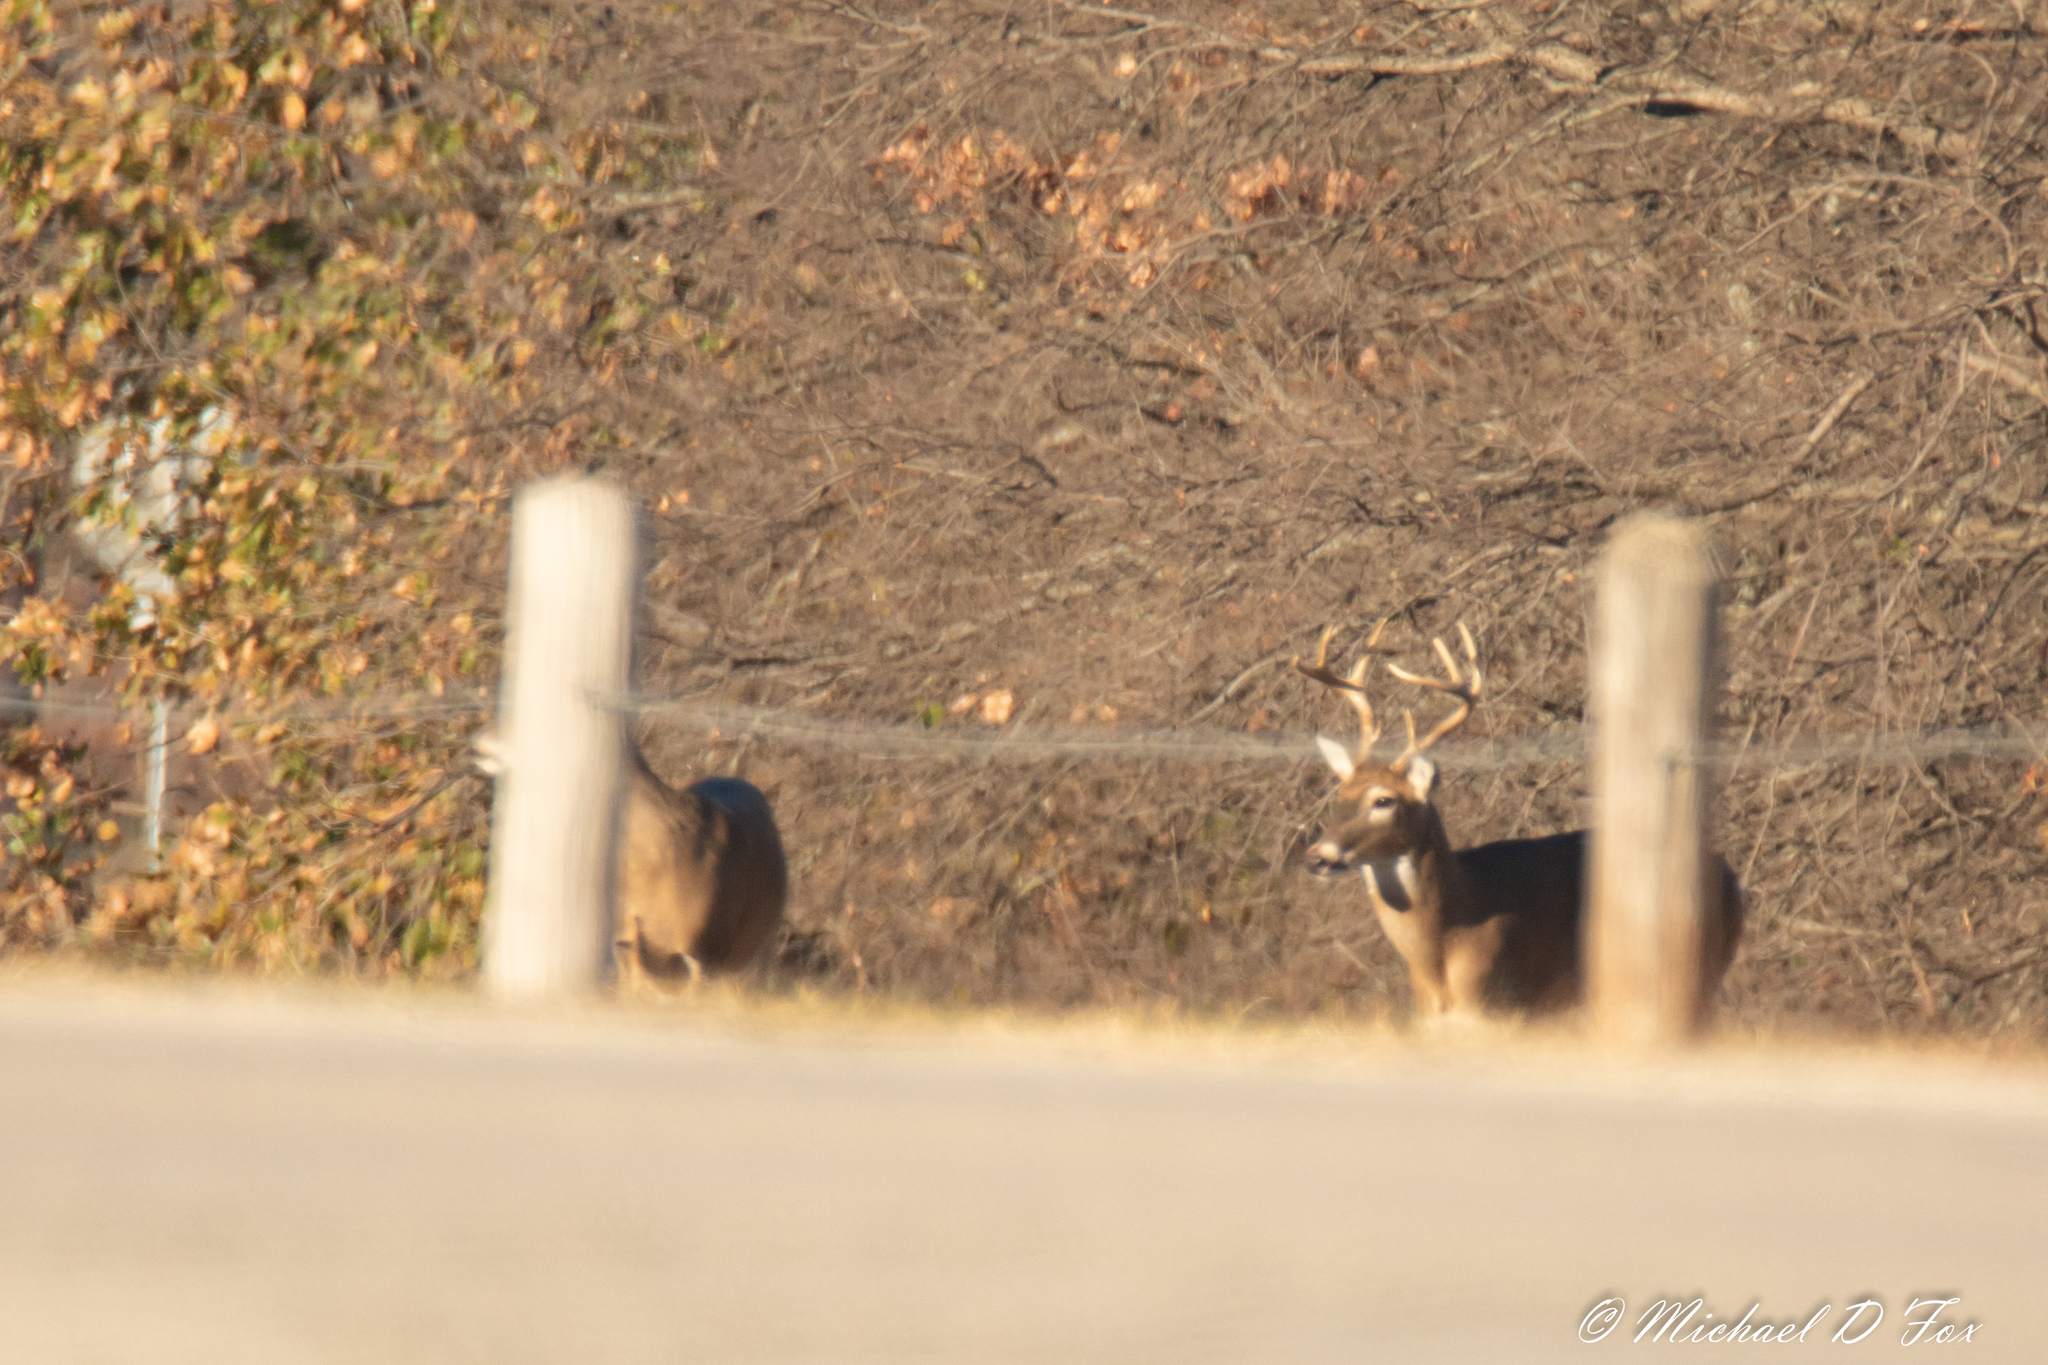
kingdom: Animalia
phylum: Chordata
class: Mammalia
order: Artiodactyla
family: Cervidae
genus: Odocoileus
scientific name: Odocoileus virginianus
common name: White-tailed deer
